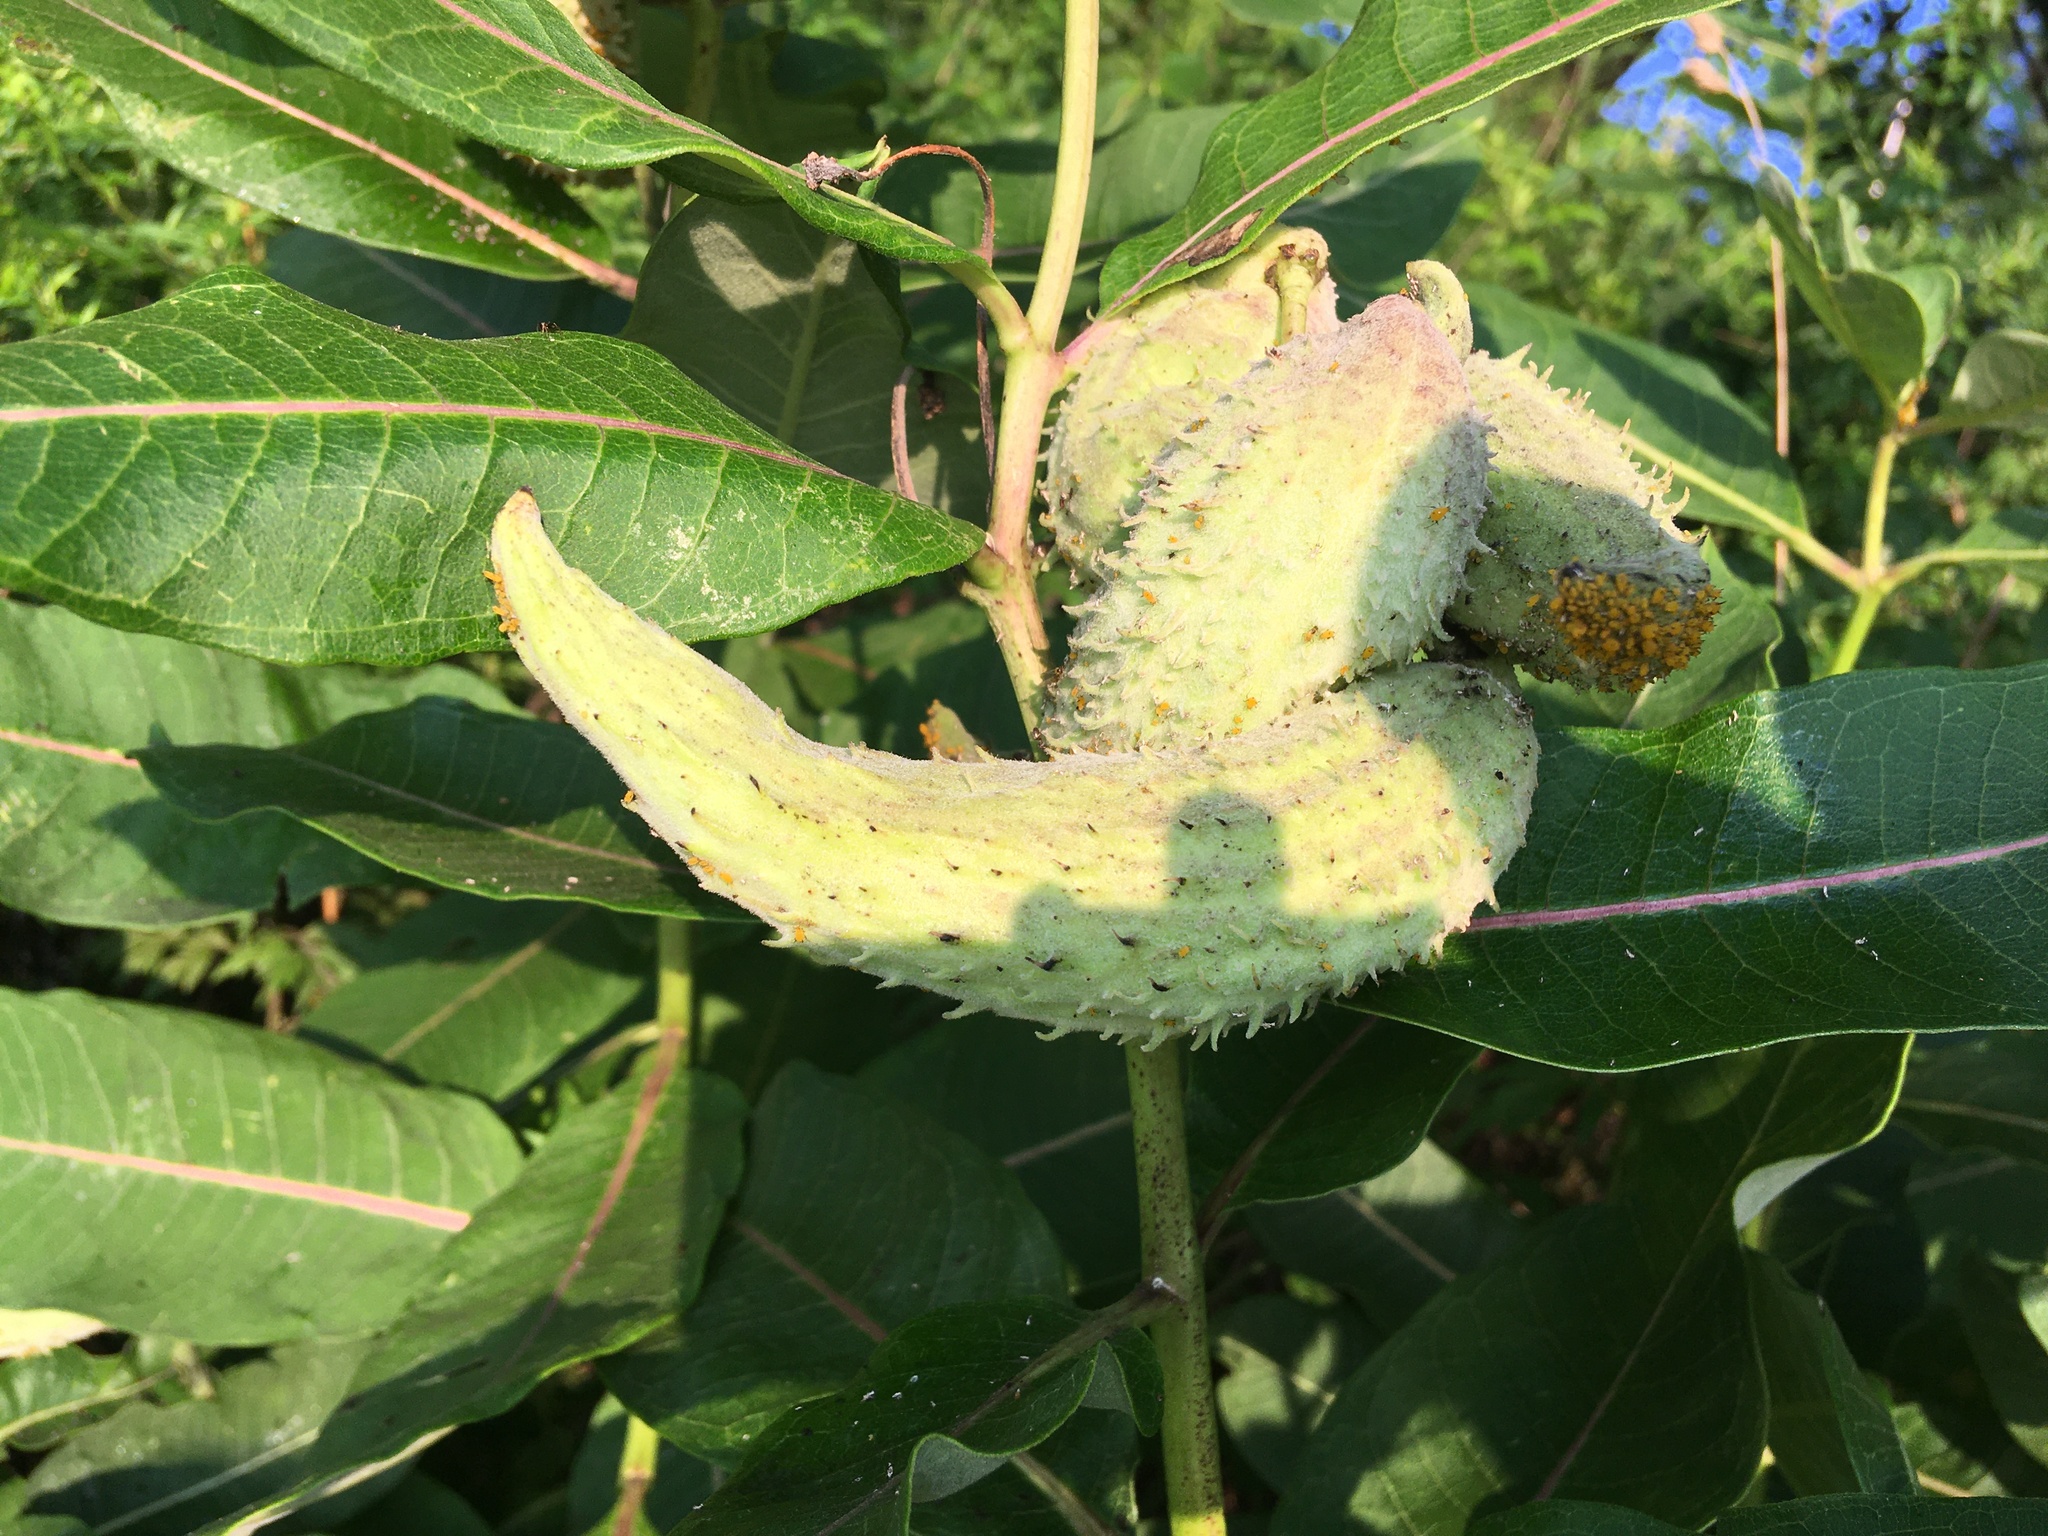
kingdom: Plantae
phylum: Tracheophyta
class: Magnoliopsida
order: Gentianales
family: Apocynaceae
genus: Asclepias
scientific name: Asclepias syriaca
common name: Common milkweed
